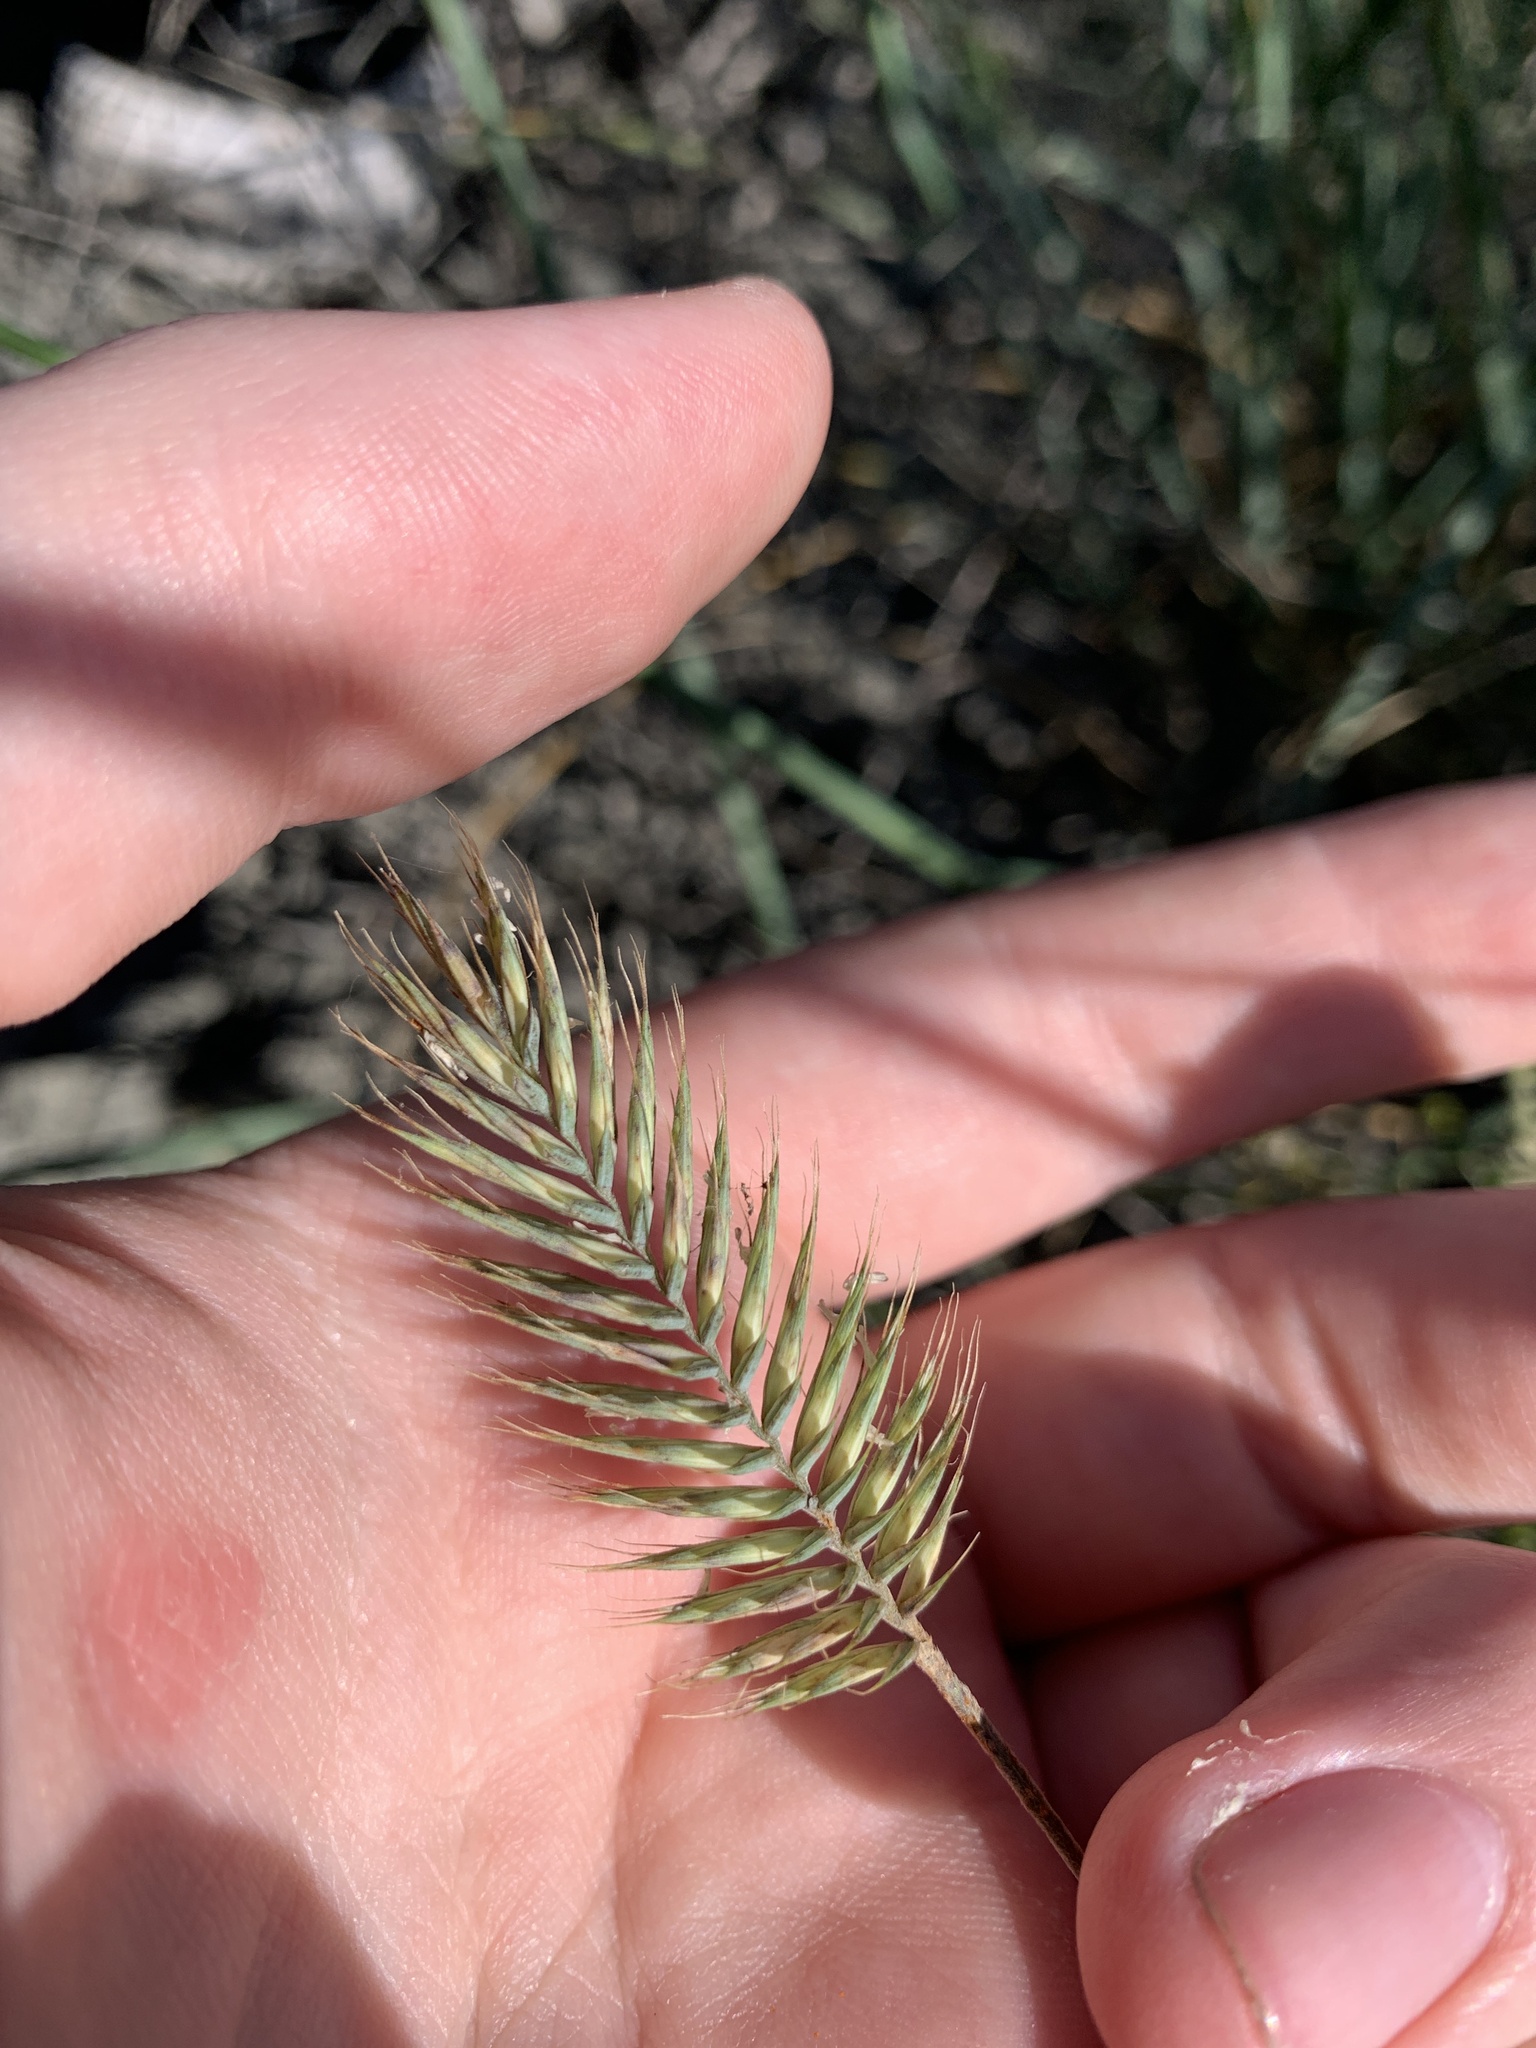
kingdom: Plantae
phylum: Tracheophyta
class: Liliopsida
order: Poales
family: Poaceae
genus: Agropyron
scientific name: Agropyron cristatum
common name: Crested wheatgrass
